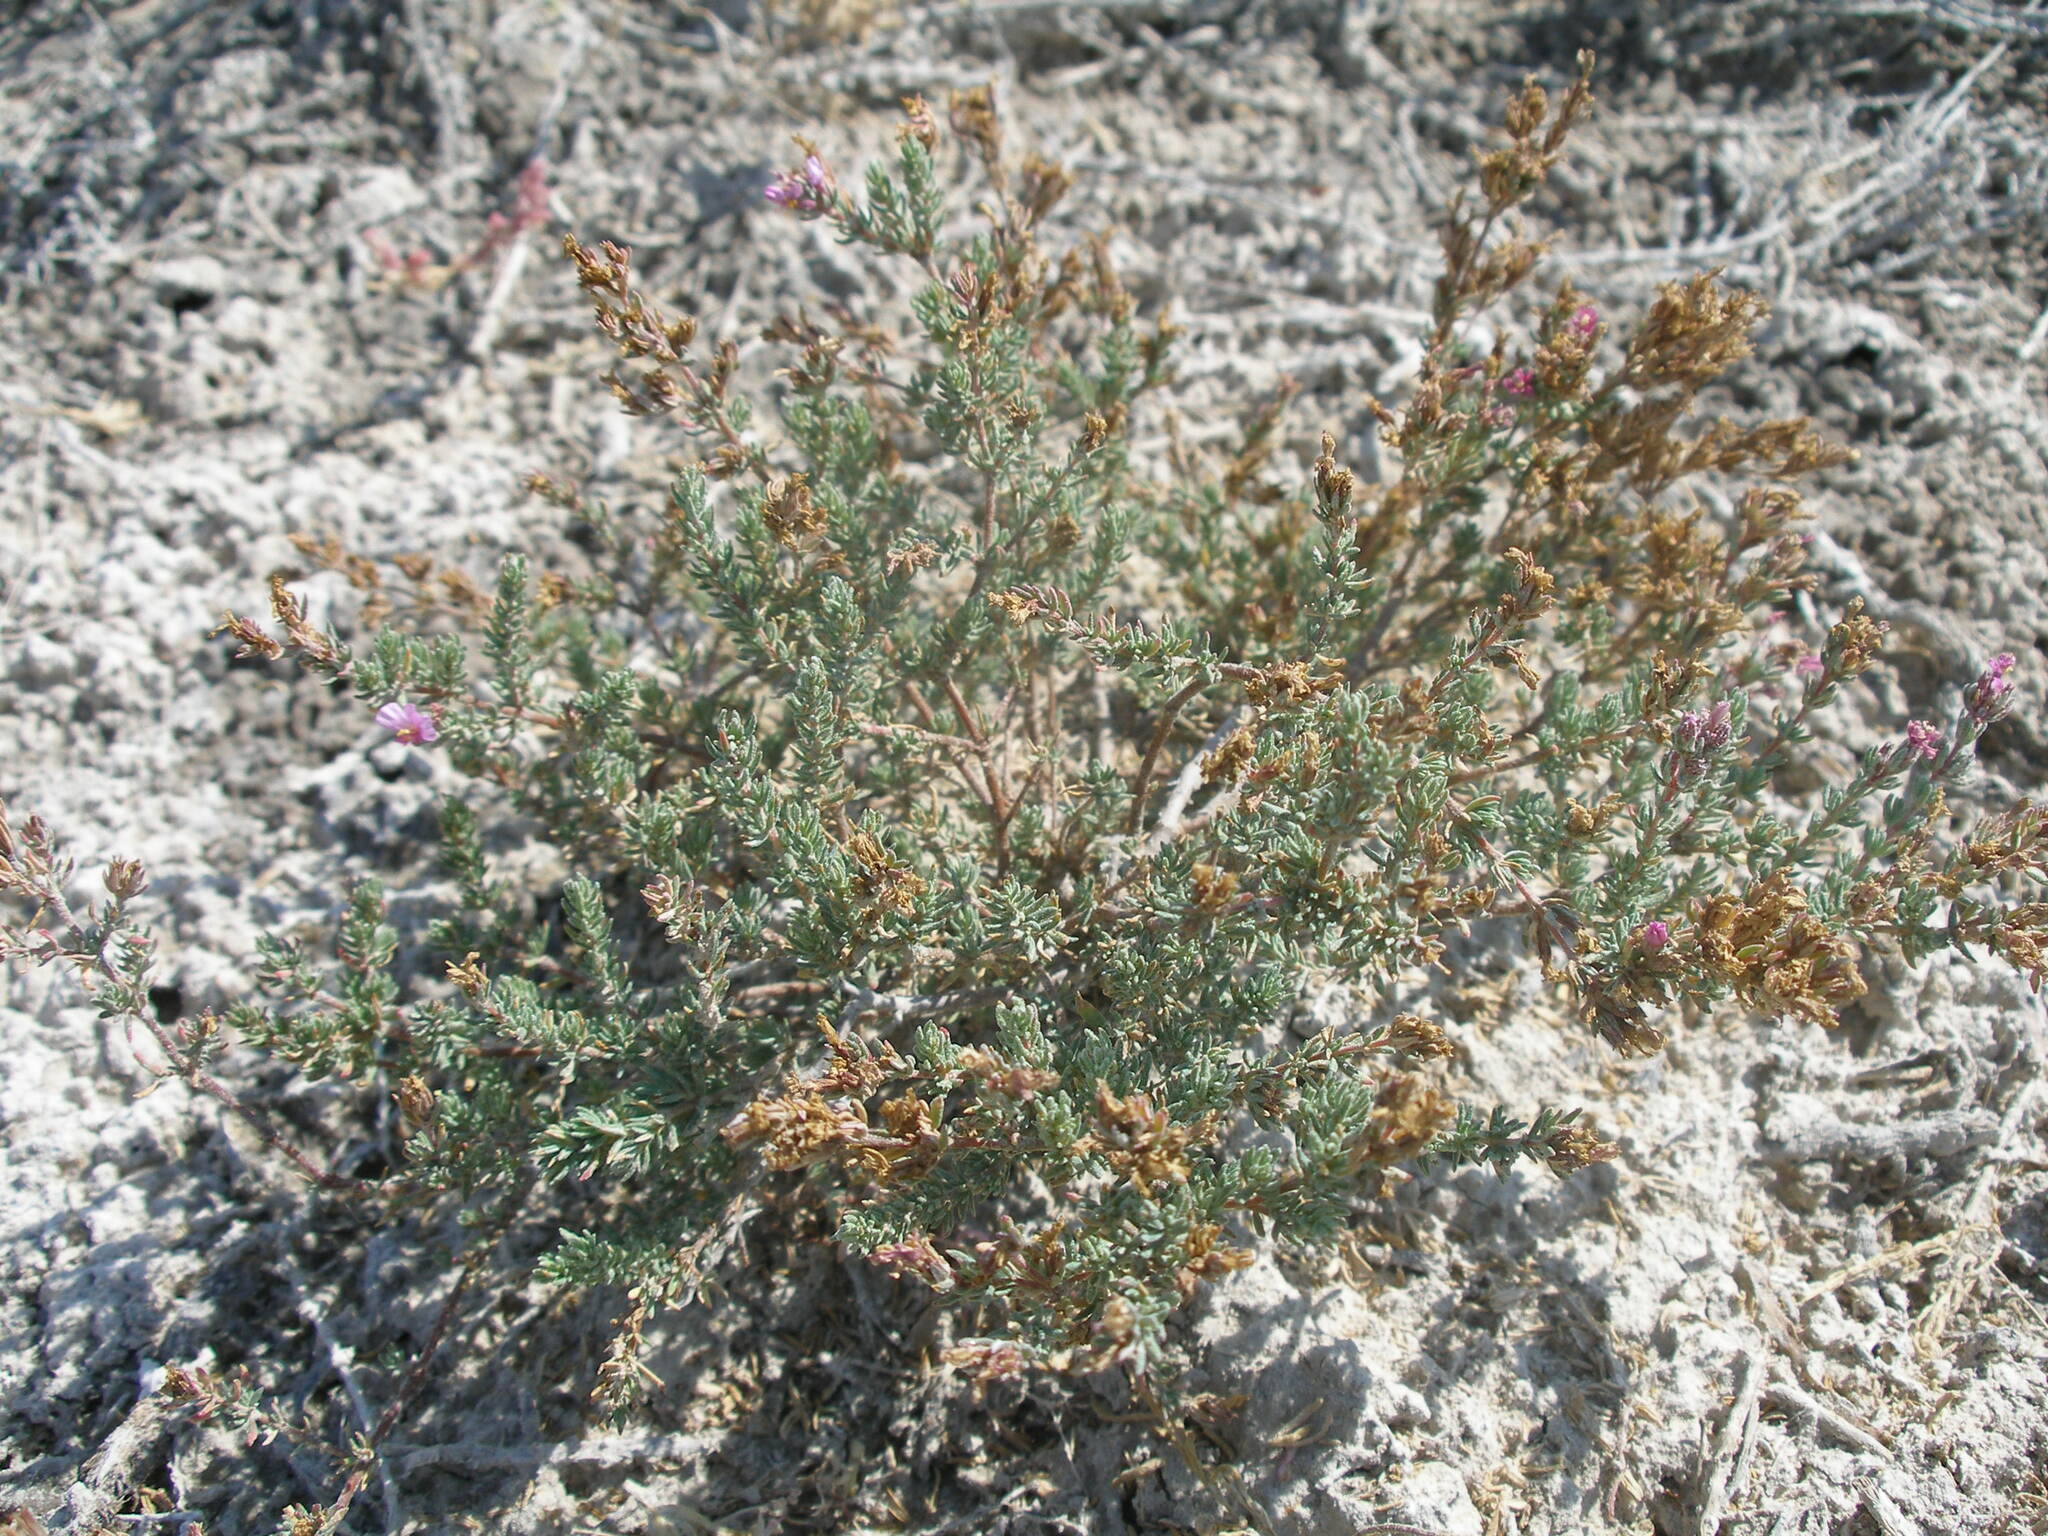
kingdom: Plantae
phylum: Tracheophyta
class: Magnoliopsida
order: Caryophyllales
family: Frankeniaceae
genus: Frankenia
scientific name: Frankenia hirsuta
